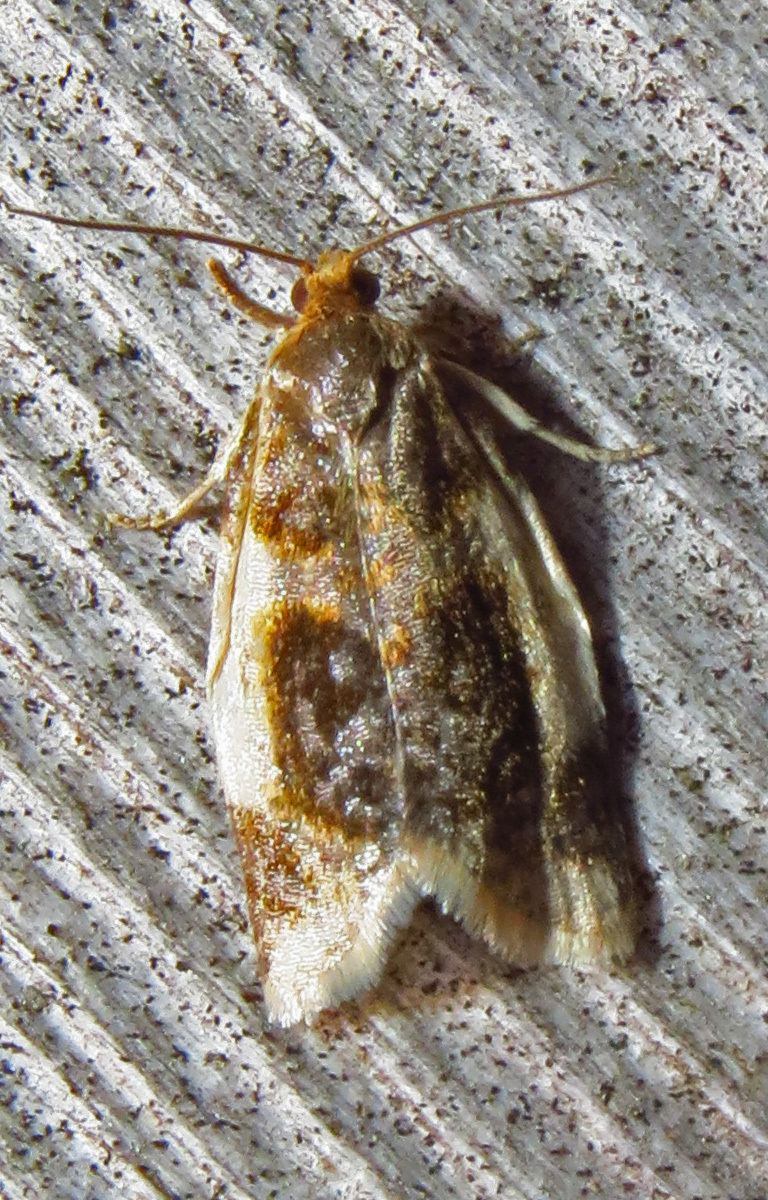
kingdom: Animalia
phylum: Arthropoda
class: Insecta
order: Lepidoptera
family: Tortricidae
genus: Clepsis
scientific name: Clepsis melaleucanus
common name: American apple tortrix
